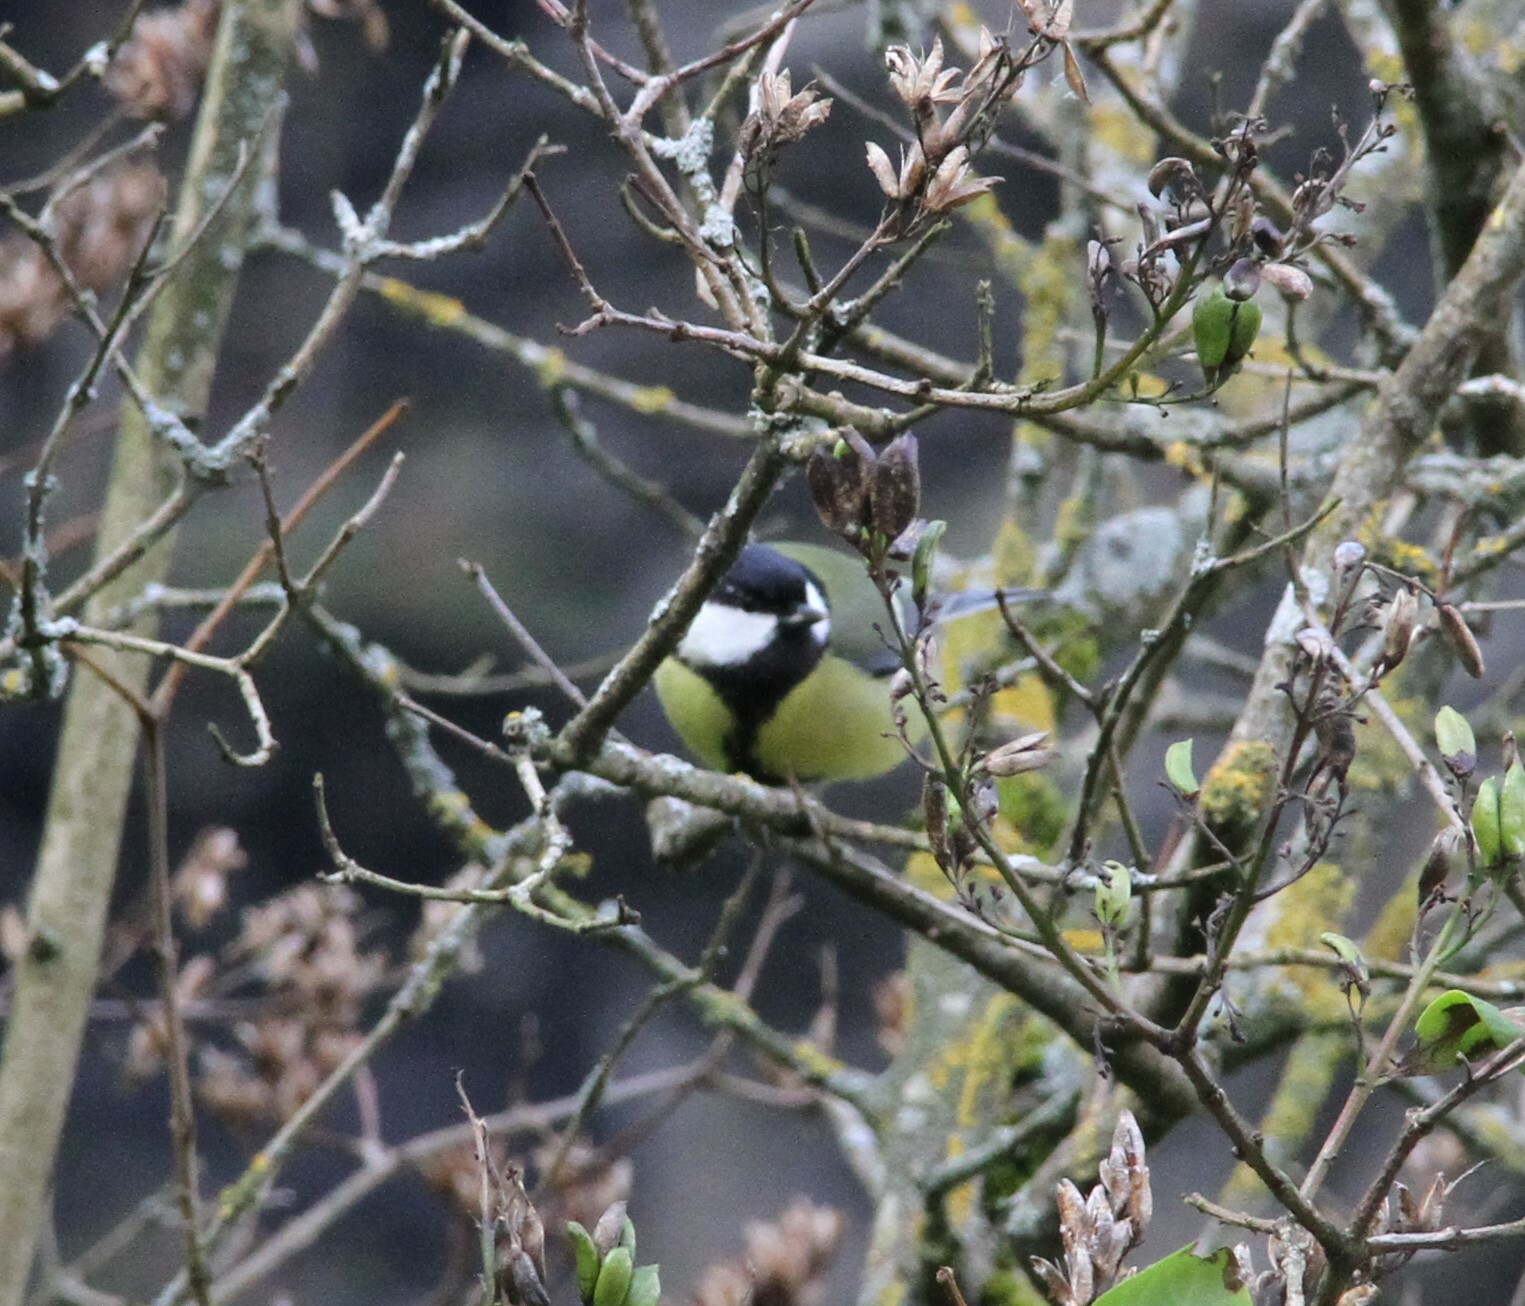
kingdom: Animalia
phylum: Chordata
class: Aves
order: Passeriformes
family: Paridae
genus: Parus
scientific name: Parus major
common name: Great tit
